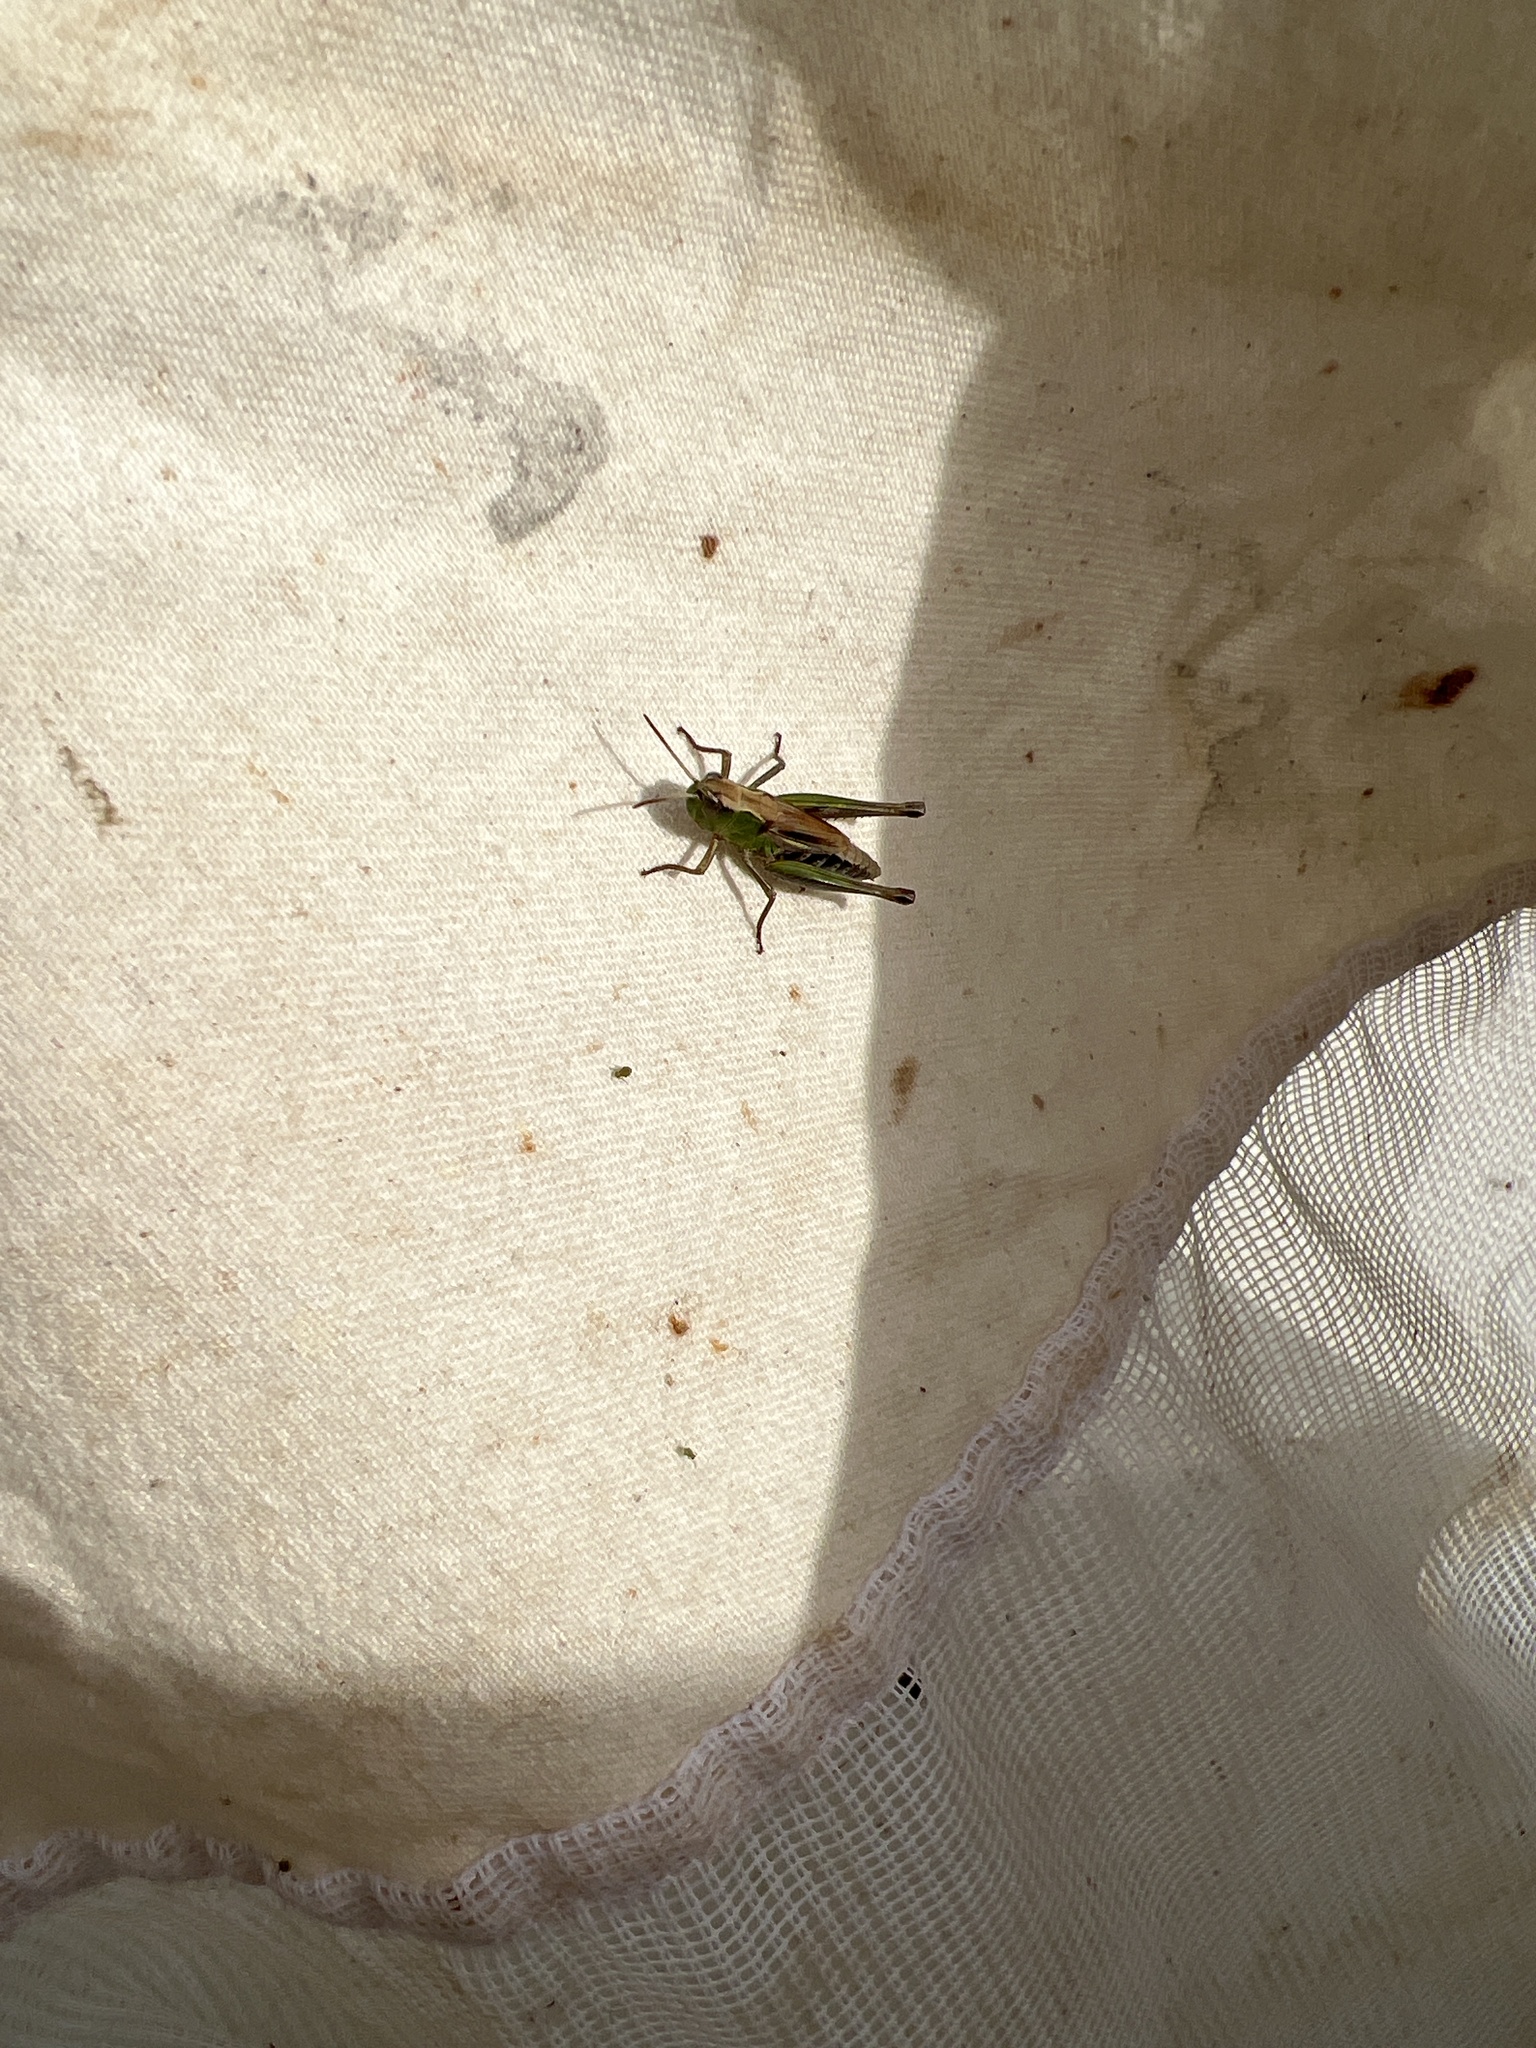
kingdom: Animalia
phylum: Arthropoda
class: Insecta
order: Orthoptera
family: Acrididae
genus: Pseudochorthippus
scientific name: Pseudochorthippus parallelus
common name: Meadow grasshopper
